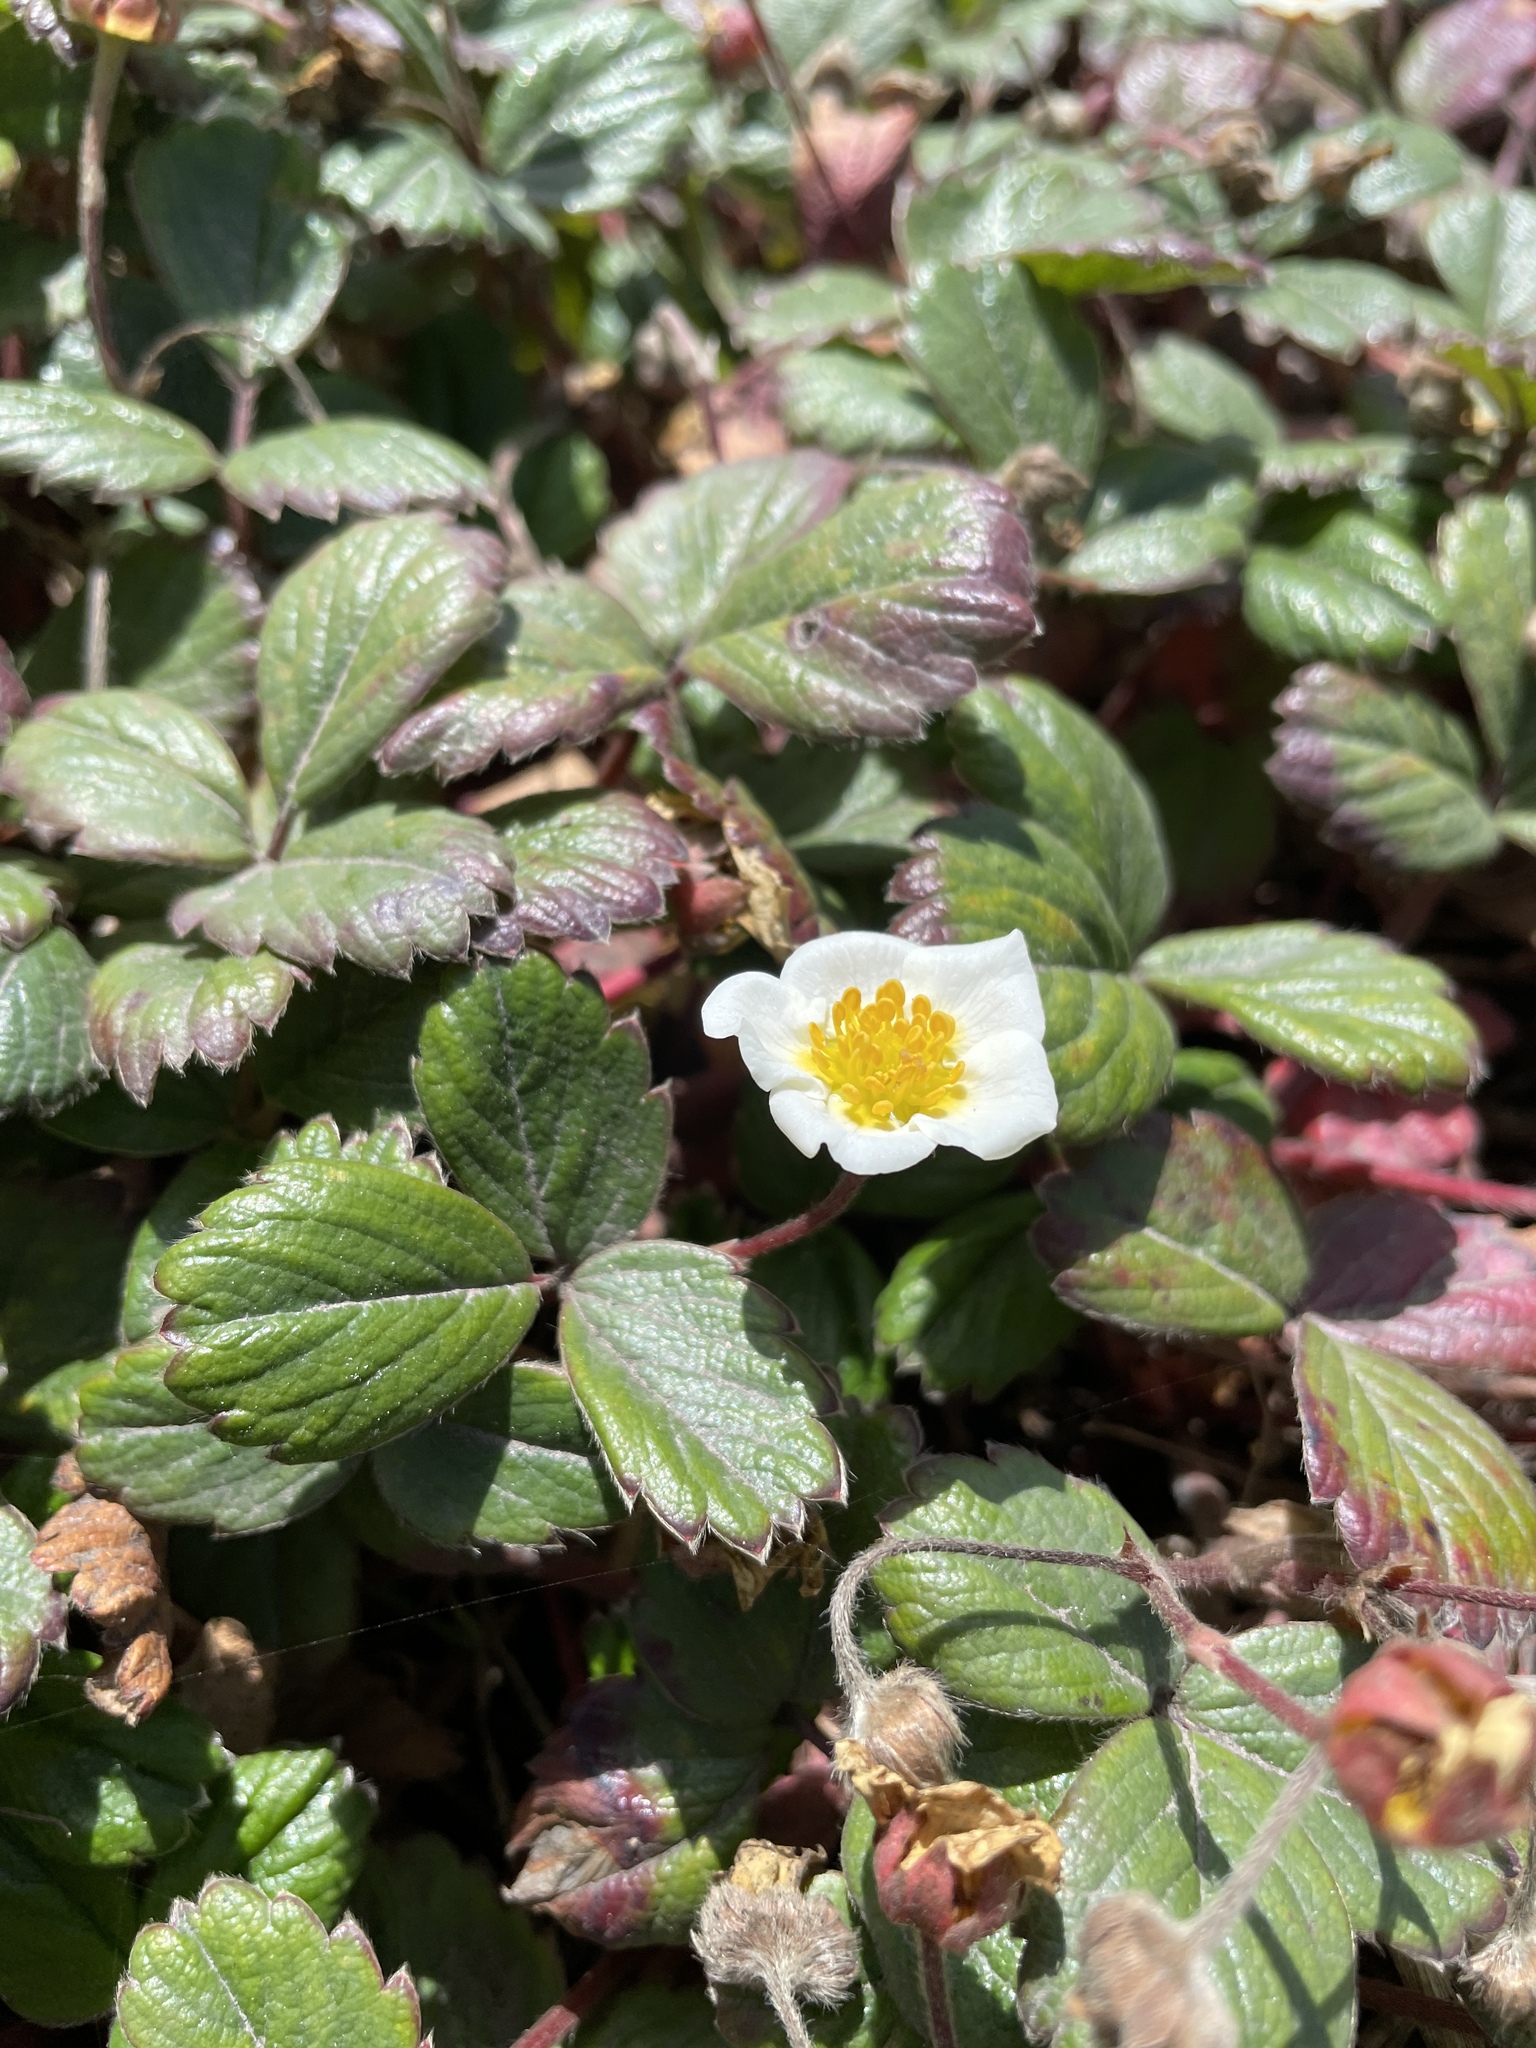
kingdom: Plantae
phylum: Tracheophyta
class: Magnoliopsida
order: Rosales
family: Rosaceae
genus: Fragaria
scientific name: Fragaria chiloensis
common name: Beach strawberry
